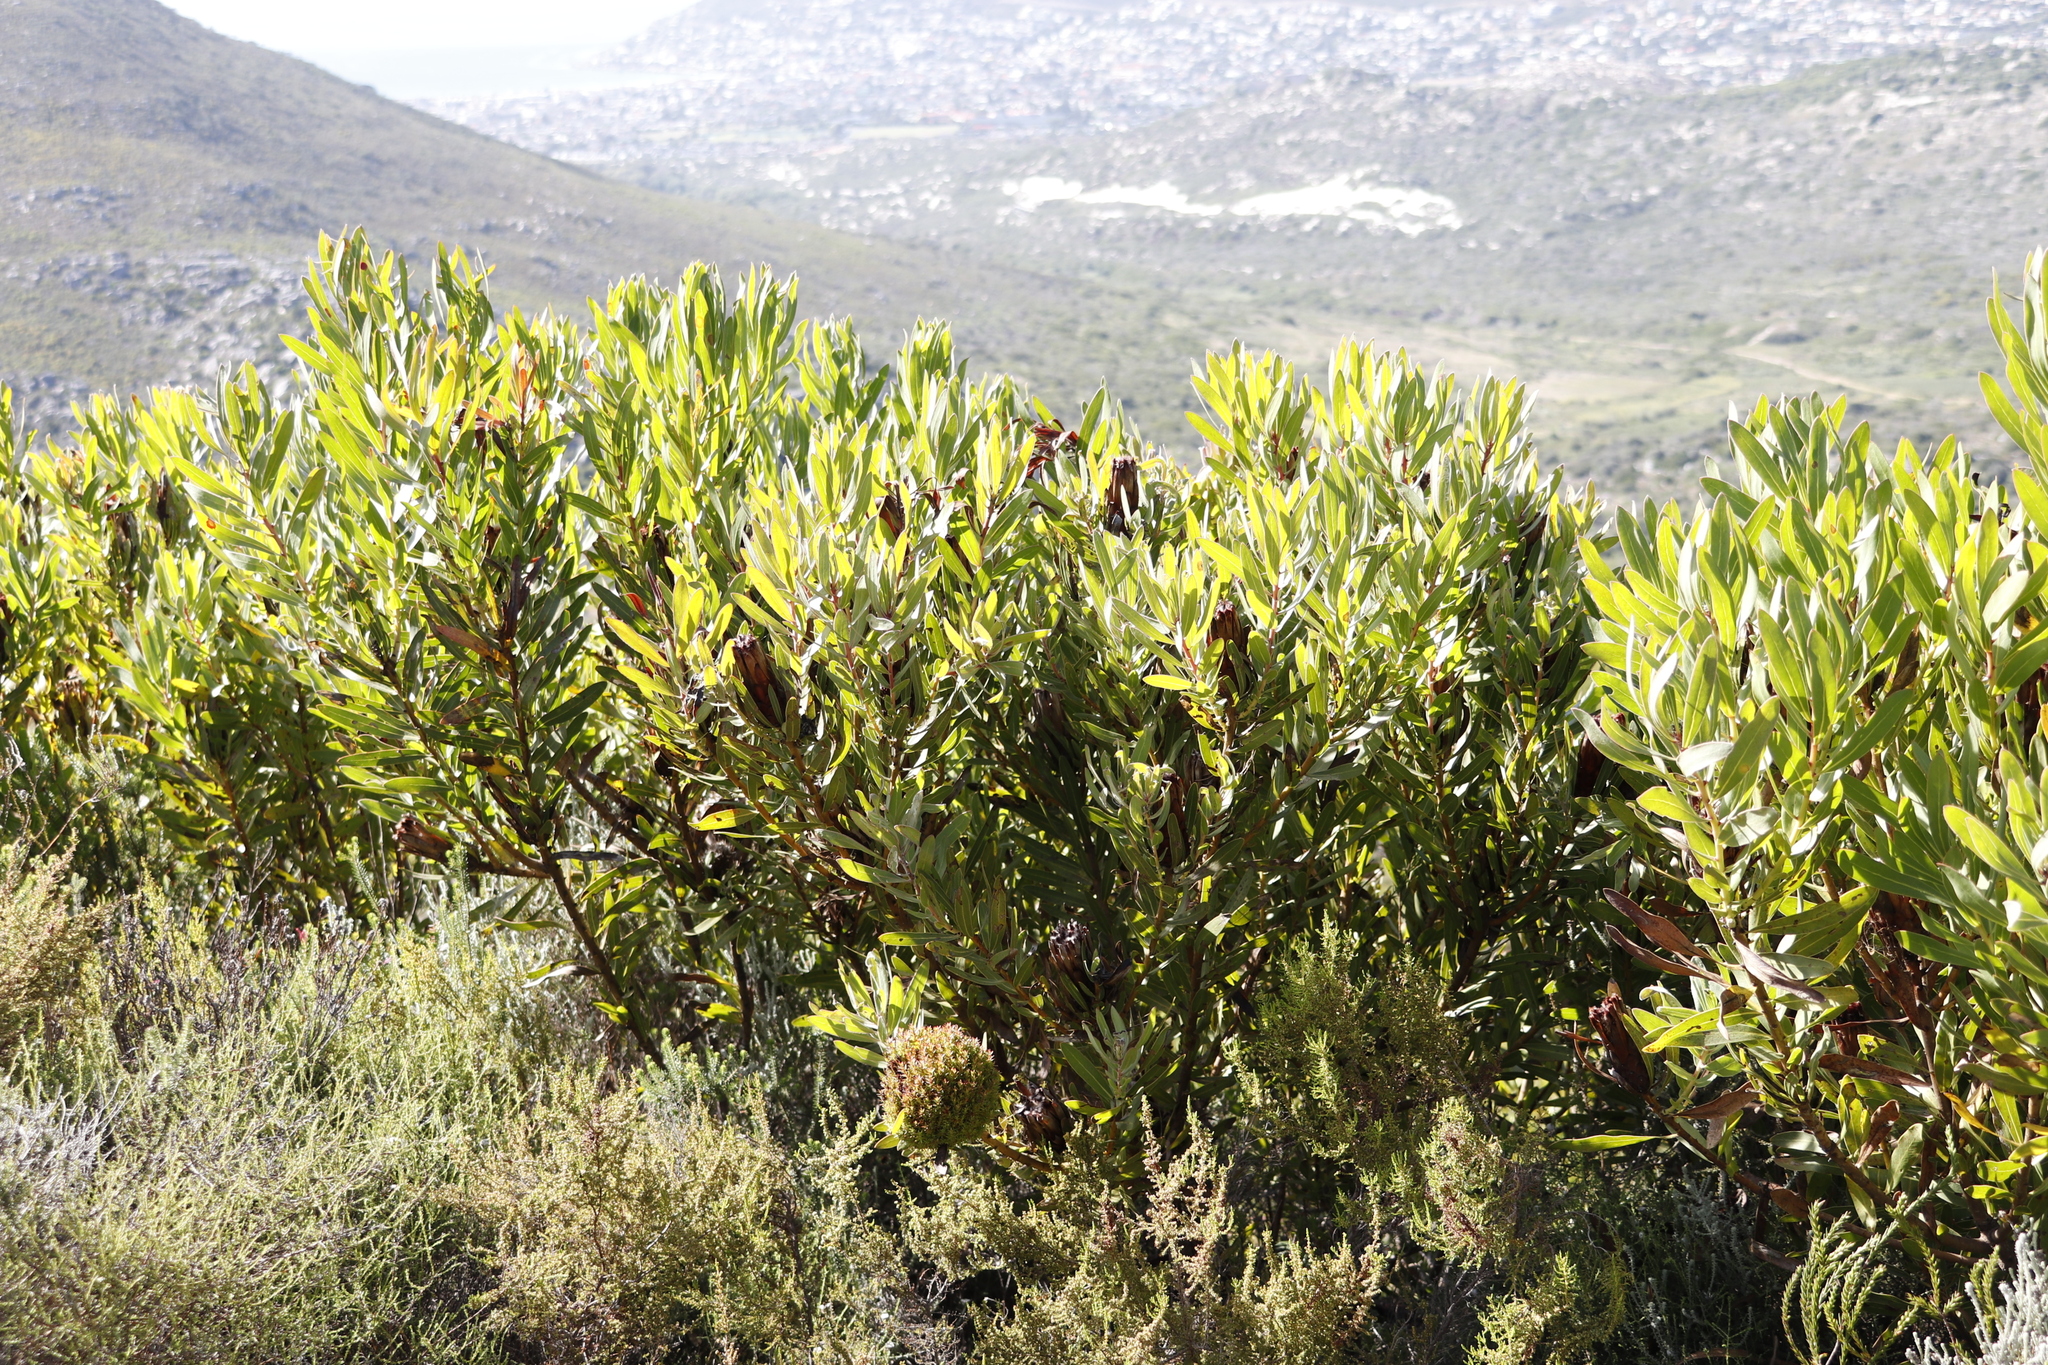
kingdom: Plantae
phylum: Tracheophyta
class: Magnoliopsida
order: Proteales
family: Proteaceae
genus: Protea
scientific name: Protea lepidocarpodendron
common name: Black-bearded protea
